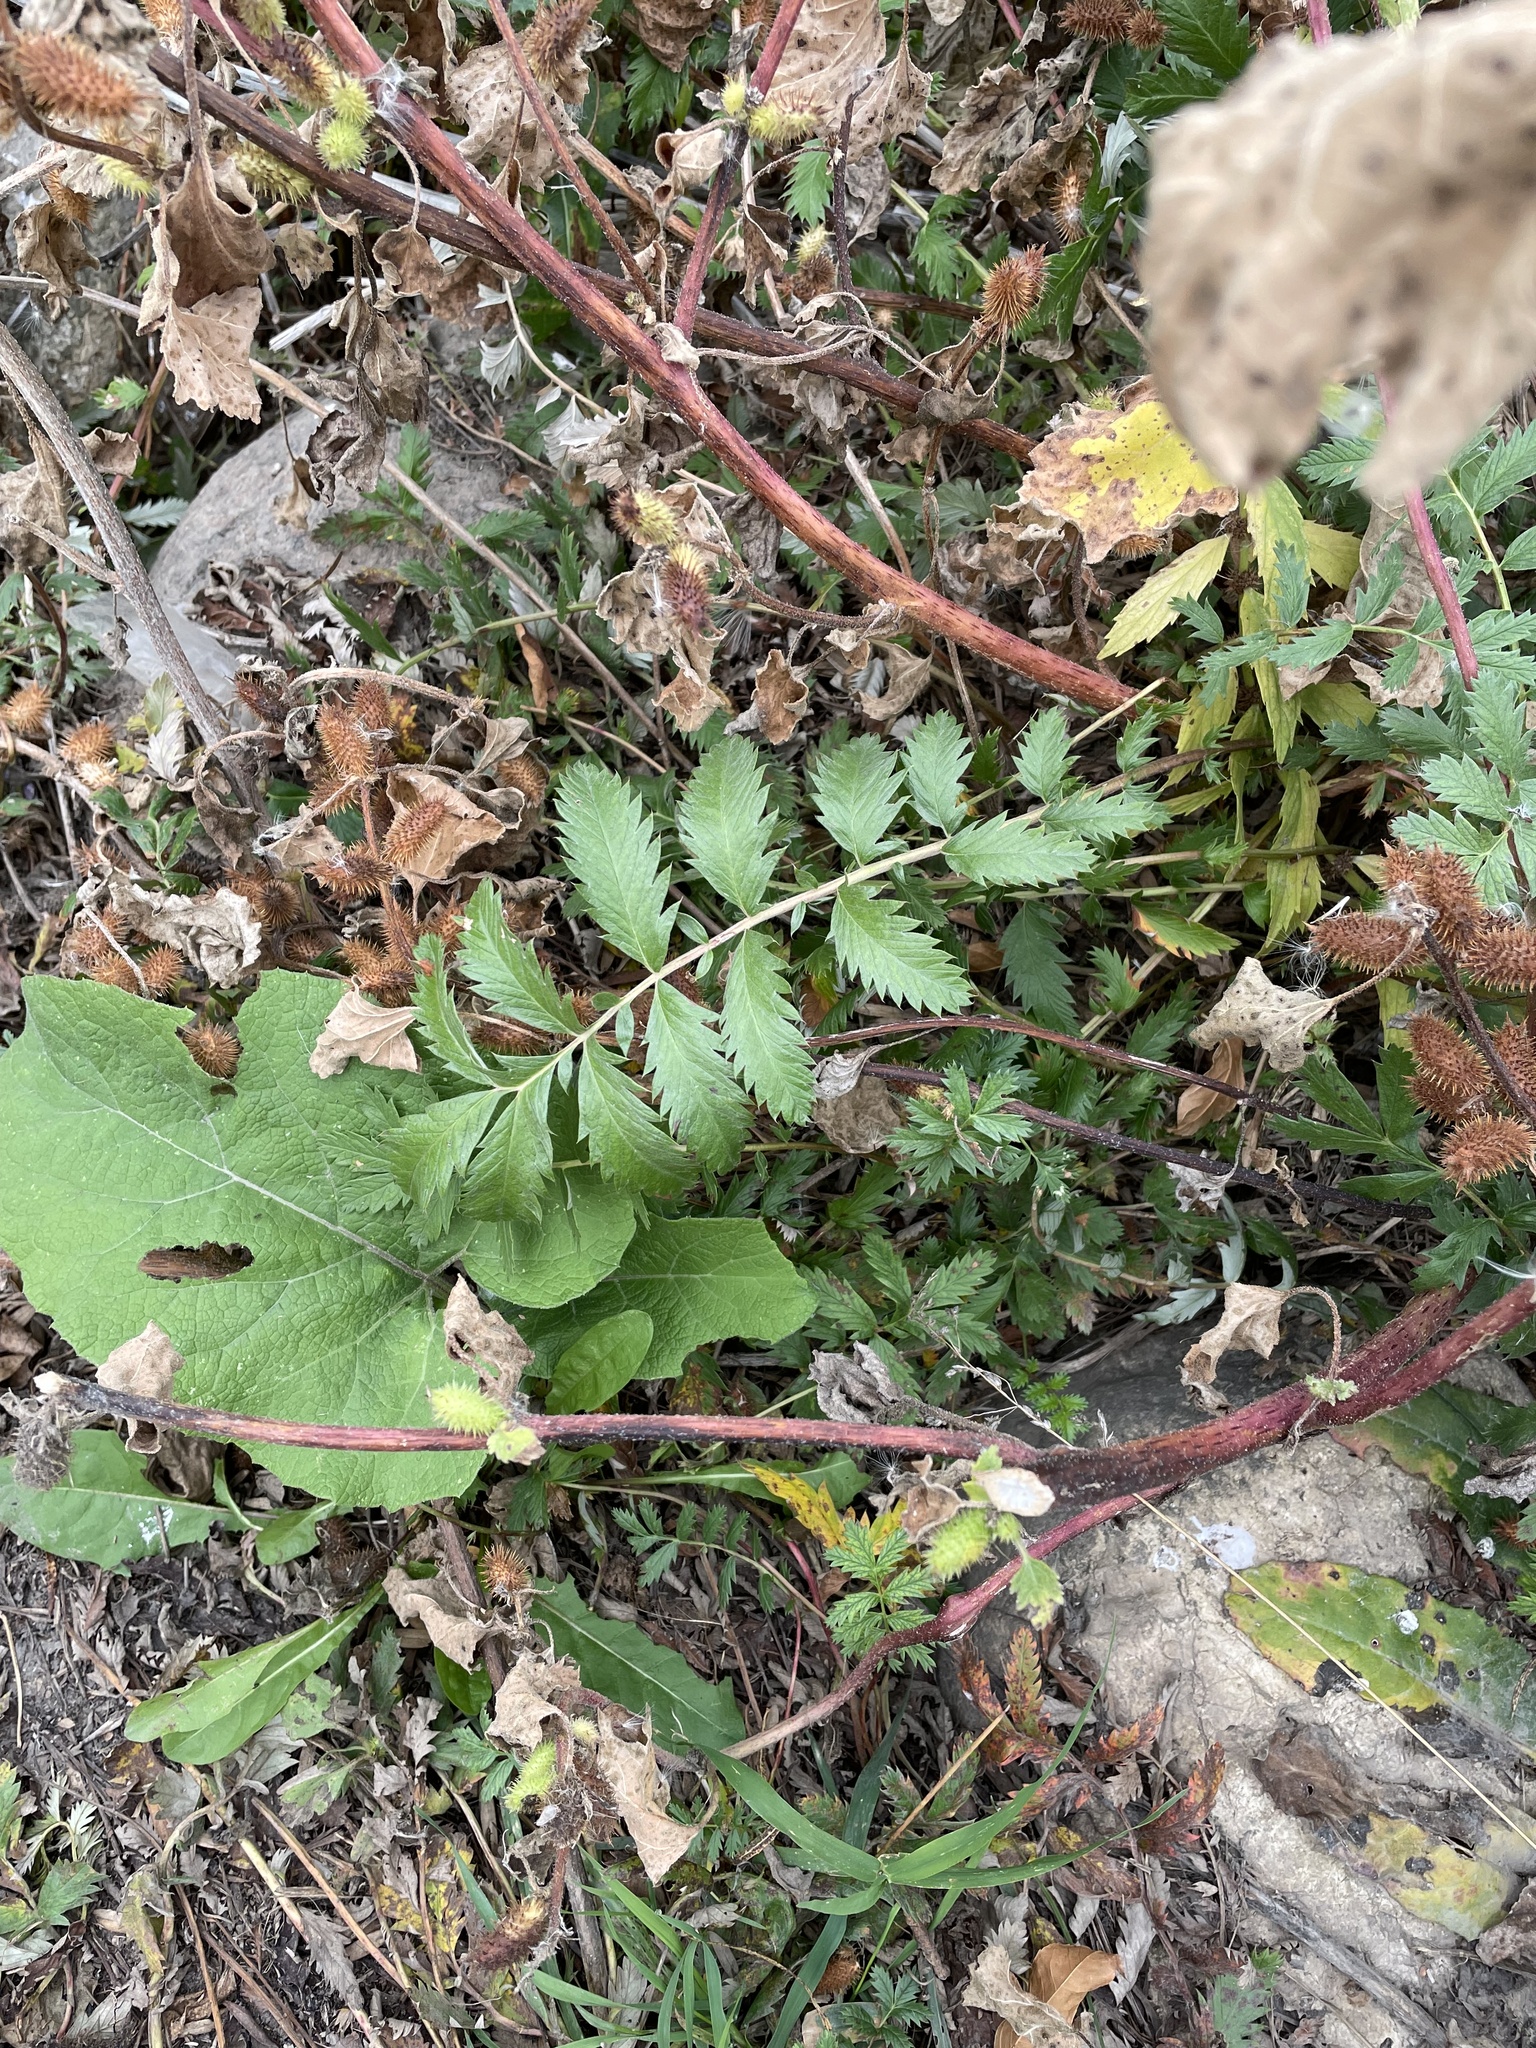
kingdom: Plantae
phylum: Tracheophyta
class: Magnoliopsida
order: Rosales
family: Rosaceae
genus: Argentina
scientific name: Argentina anserina
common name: Common silverweed
